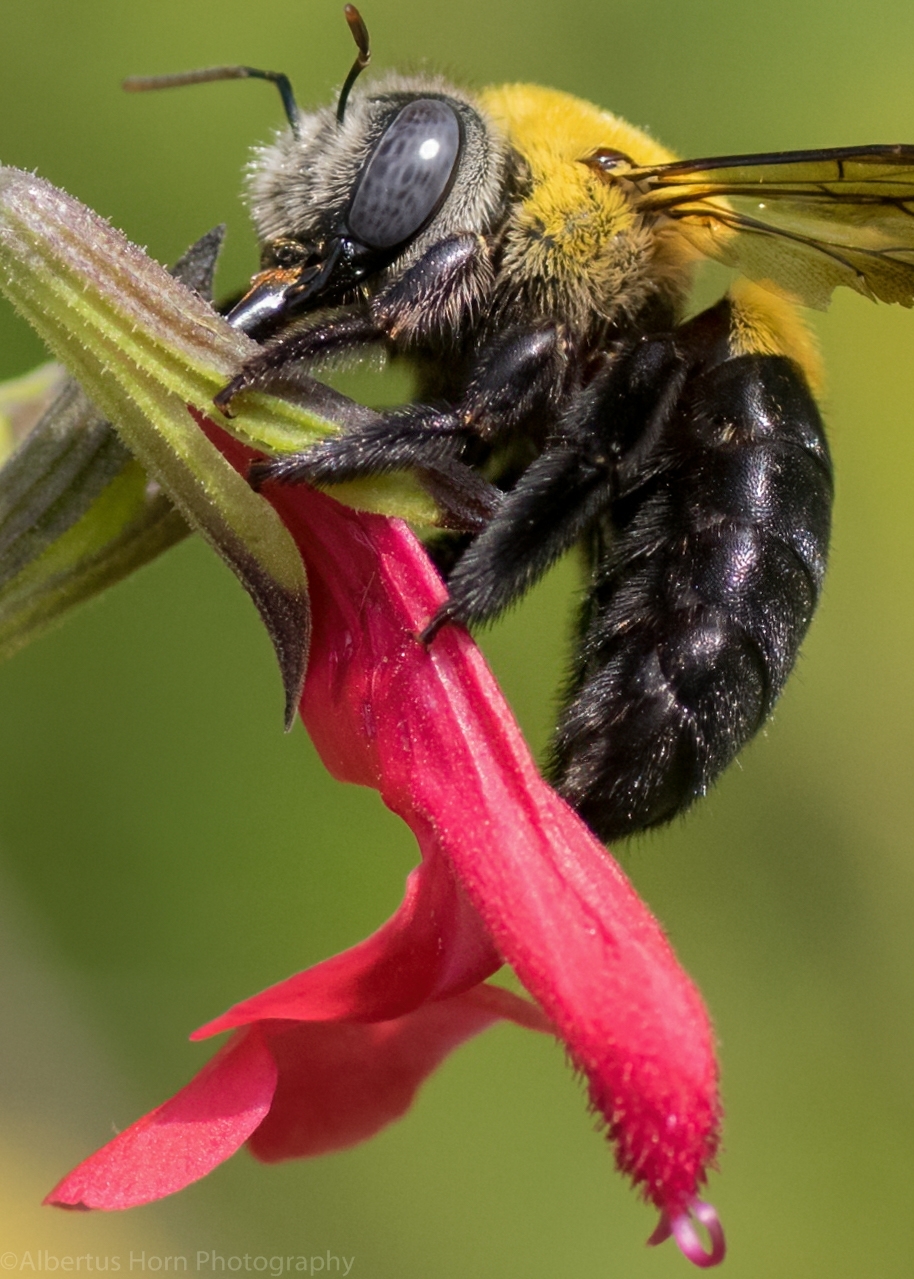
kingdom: Animalia
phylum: Arthropoda
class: Insecta
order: Hymenoptera
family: Apidae
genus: Xylocopa
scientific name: Xylocopa senior
